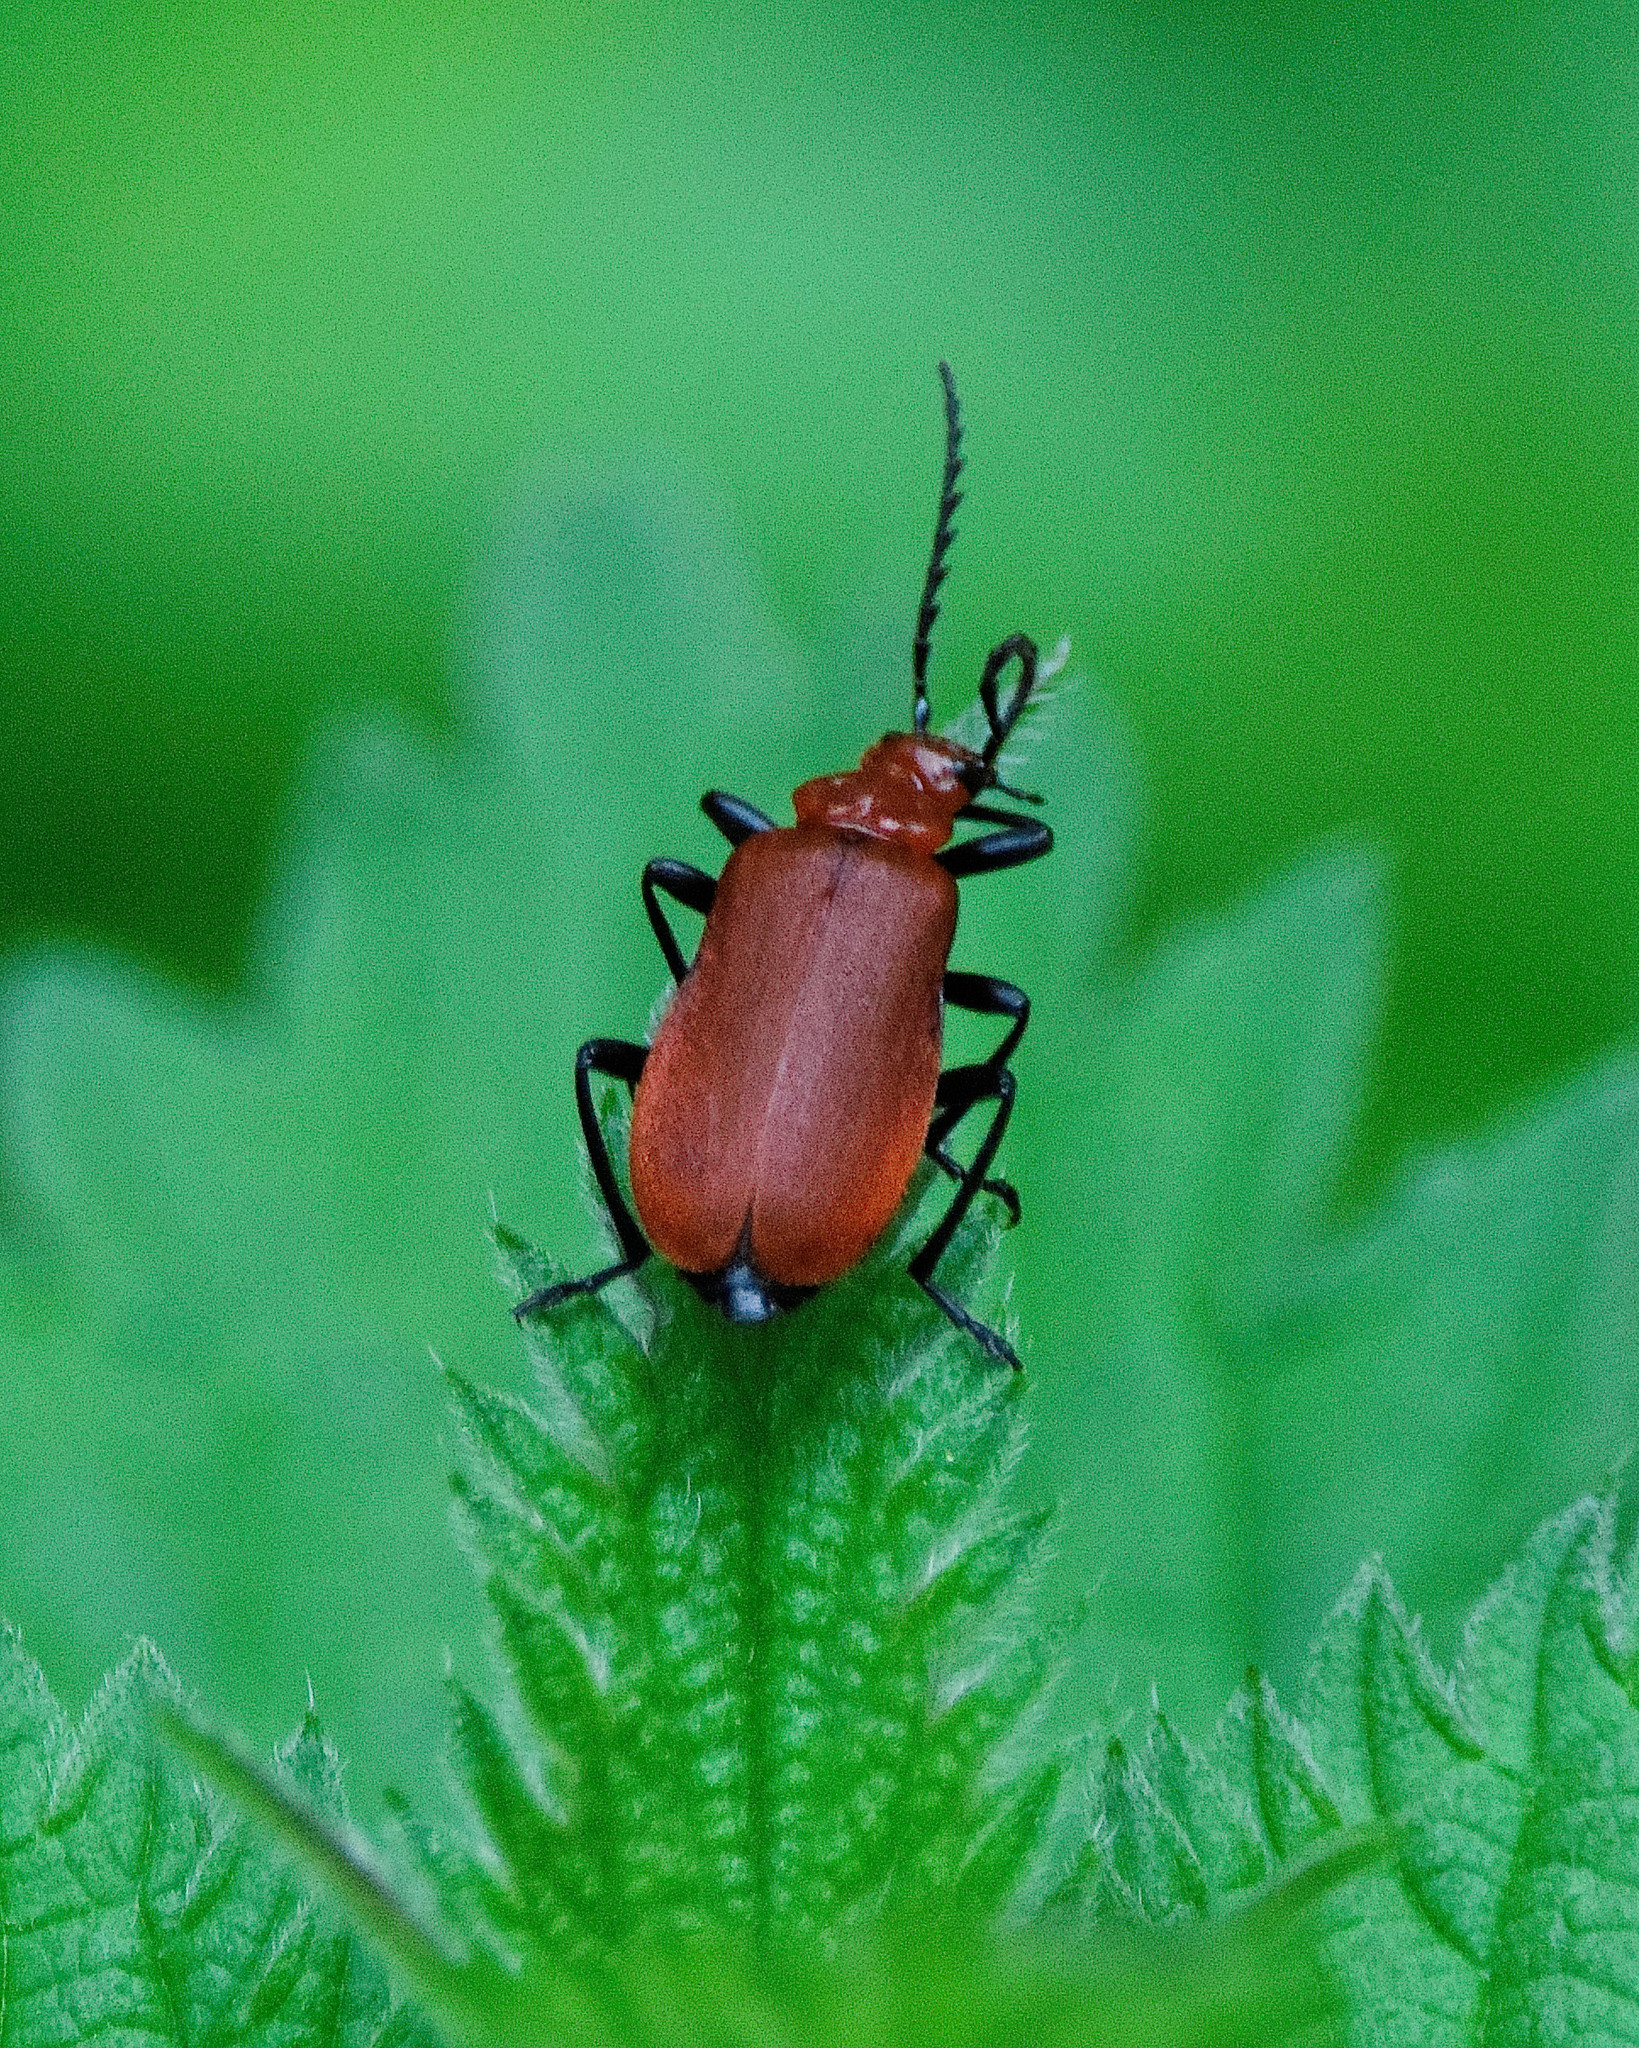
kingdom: Animalia
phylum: Arthropoda
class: Insecta
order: Coleoptera
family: Pyrochroidae
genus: Pyrochroa
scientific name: Pyrochroa serraticornis
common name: Red-headed cardinal beetle
